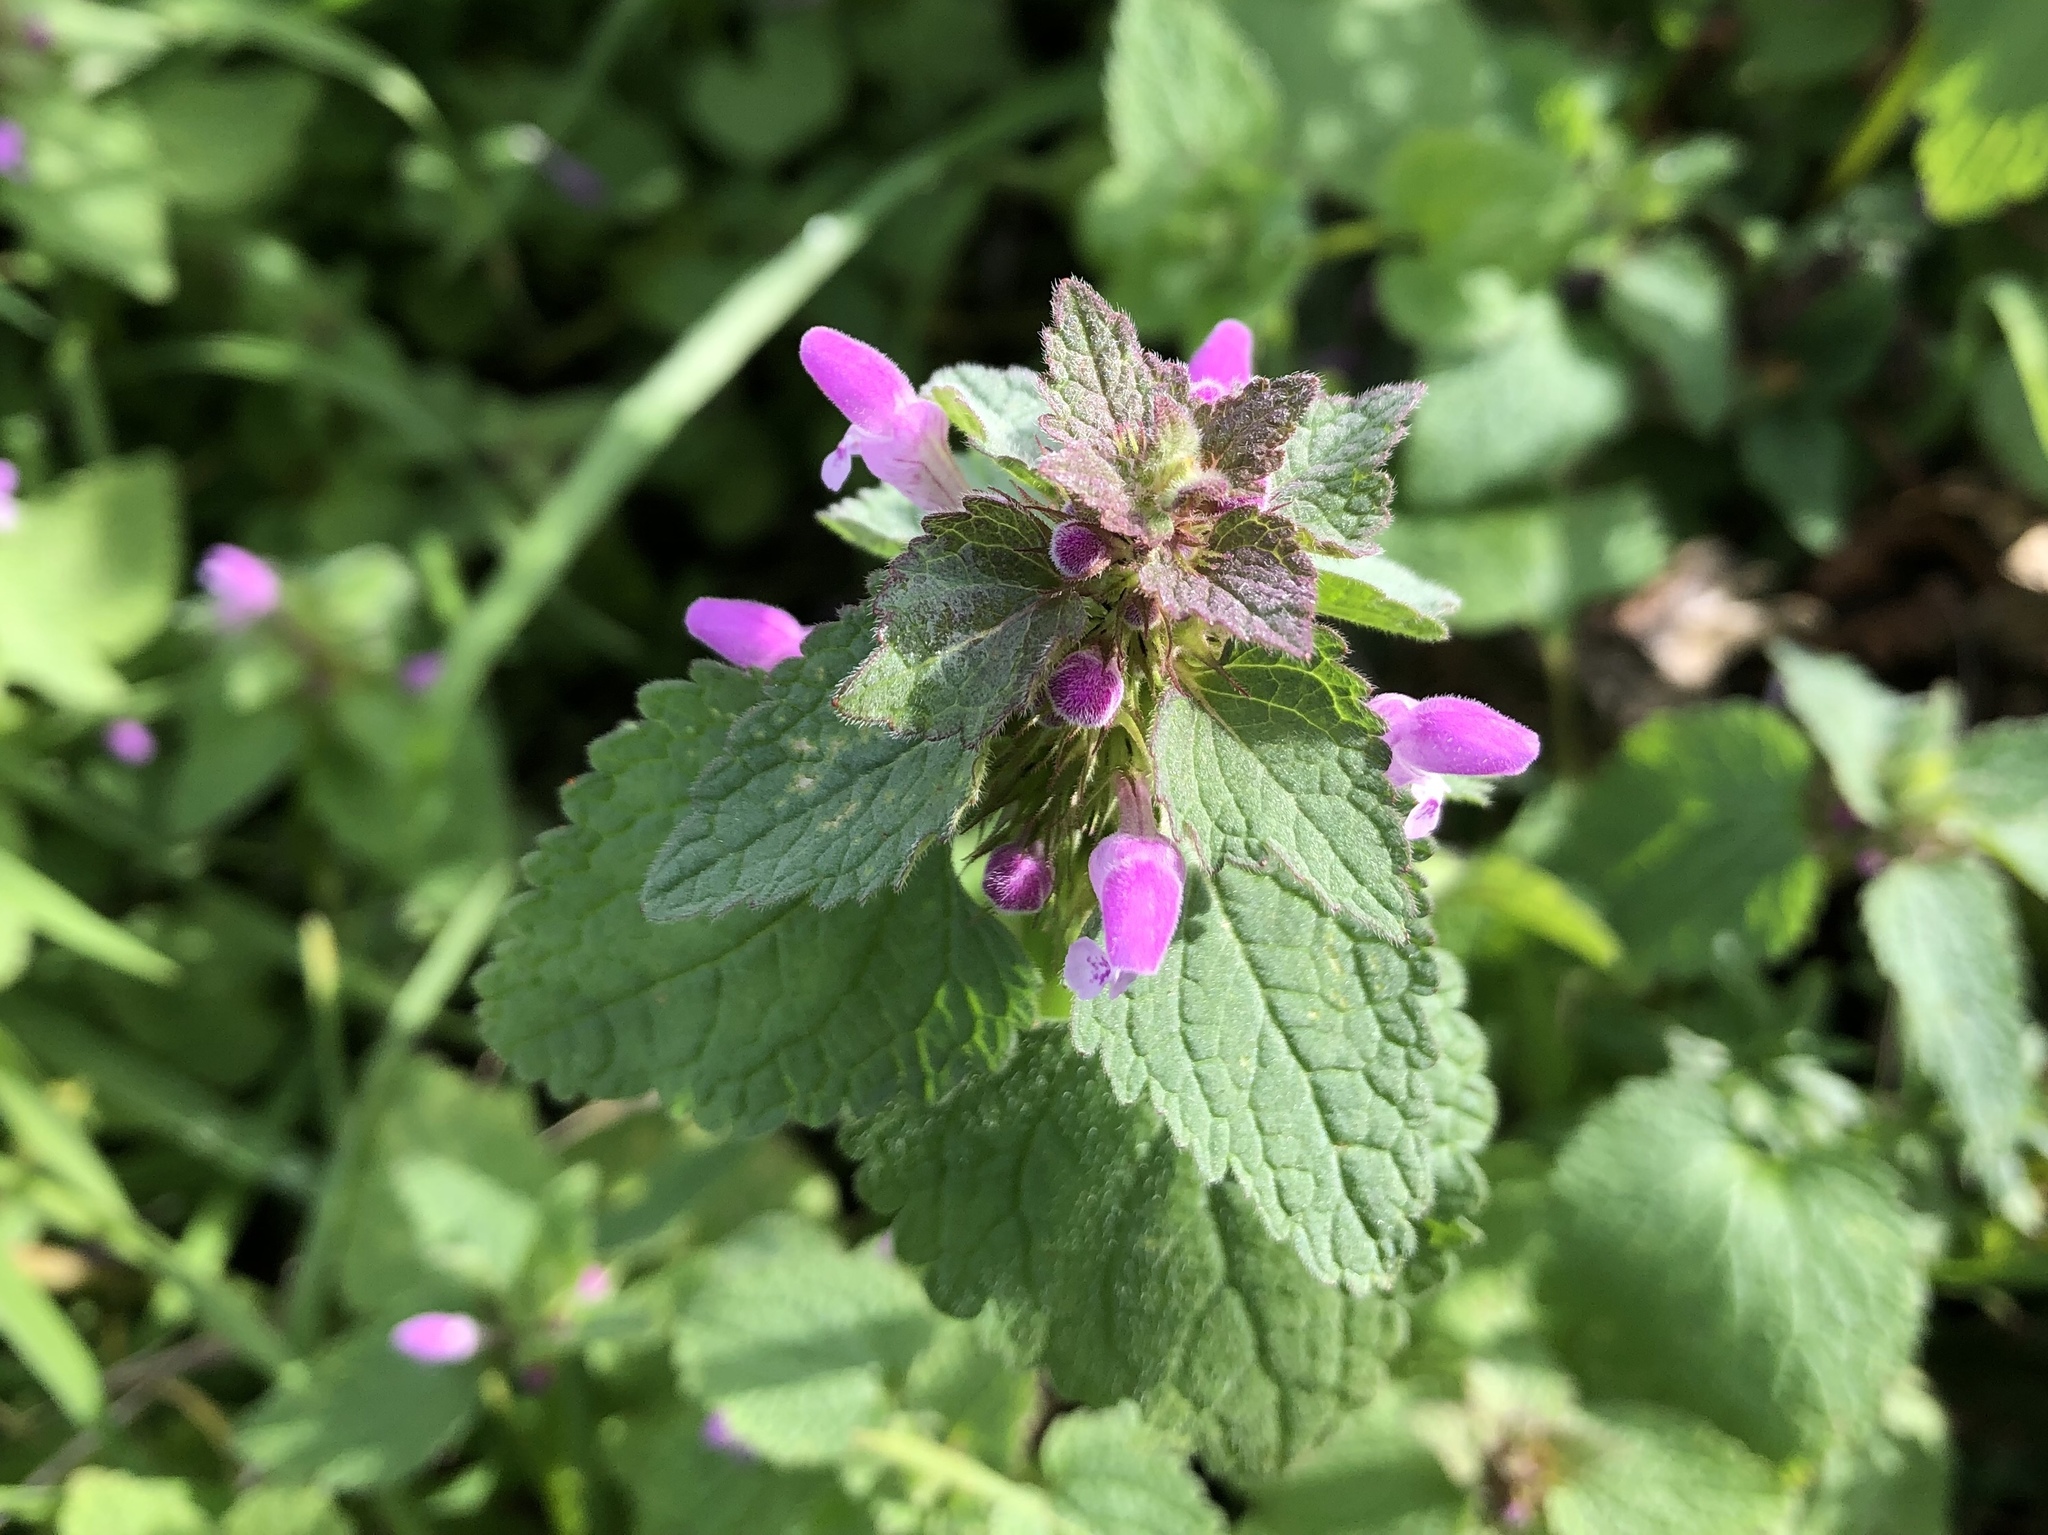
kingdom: Plantae
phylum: Tracheophyta
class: Magnoliopsida
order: Lamiales
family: Lamiaceae
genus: Lamium
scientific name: Lamium purpureum
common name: Red dead-nettle
